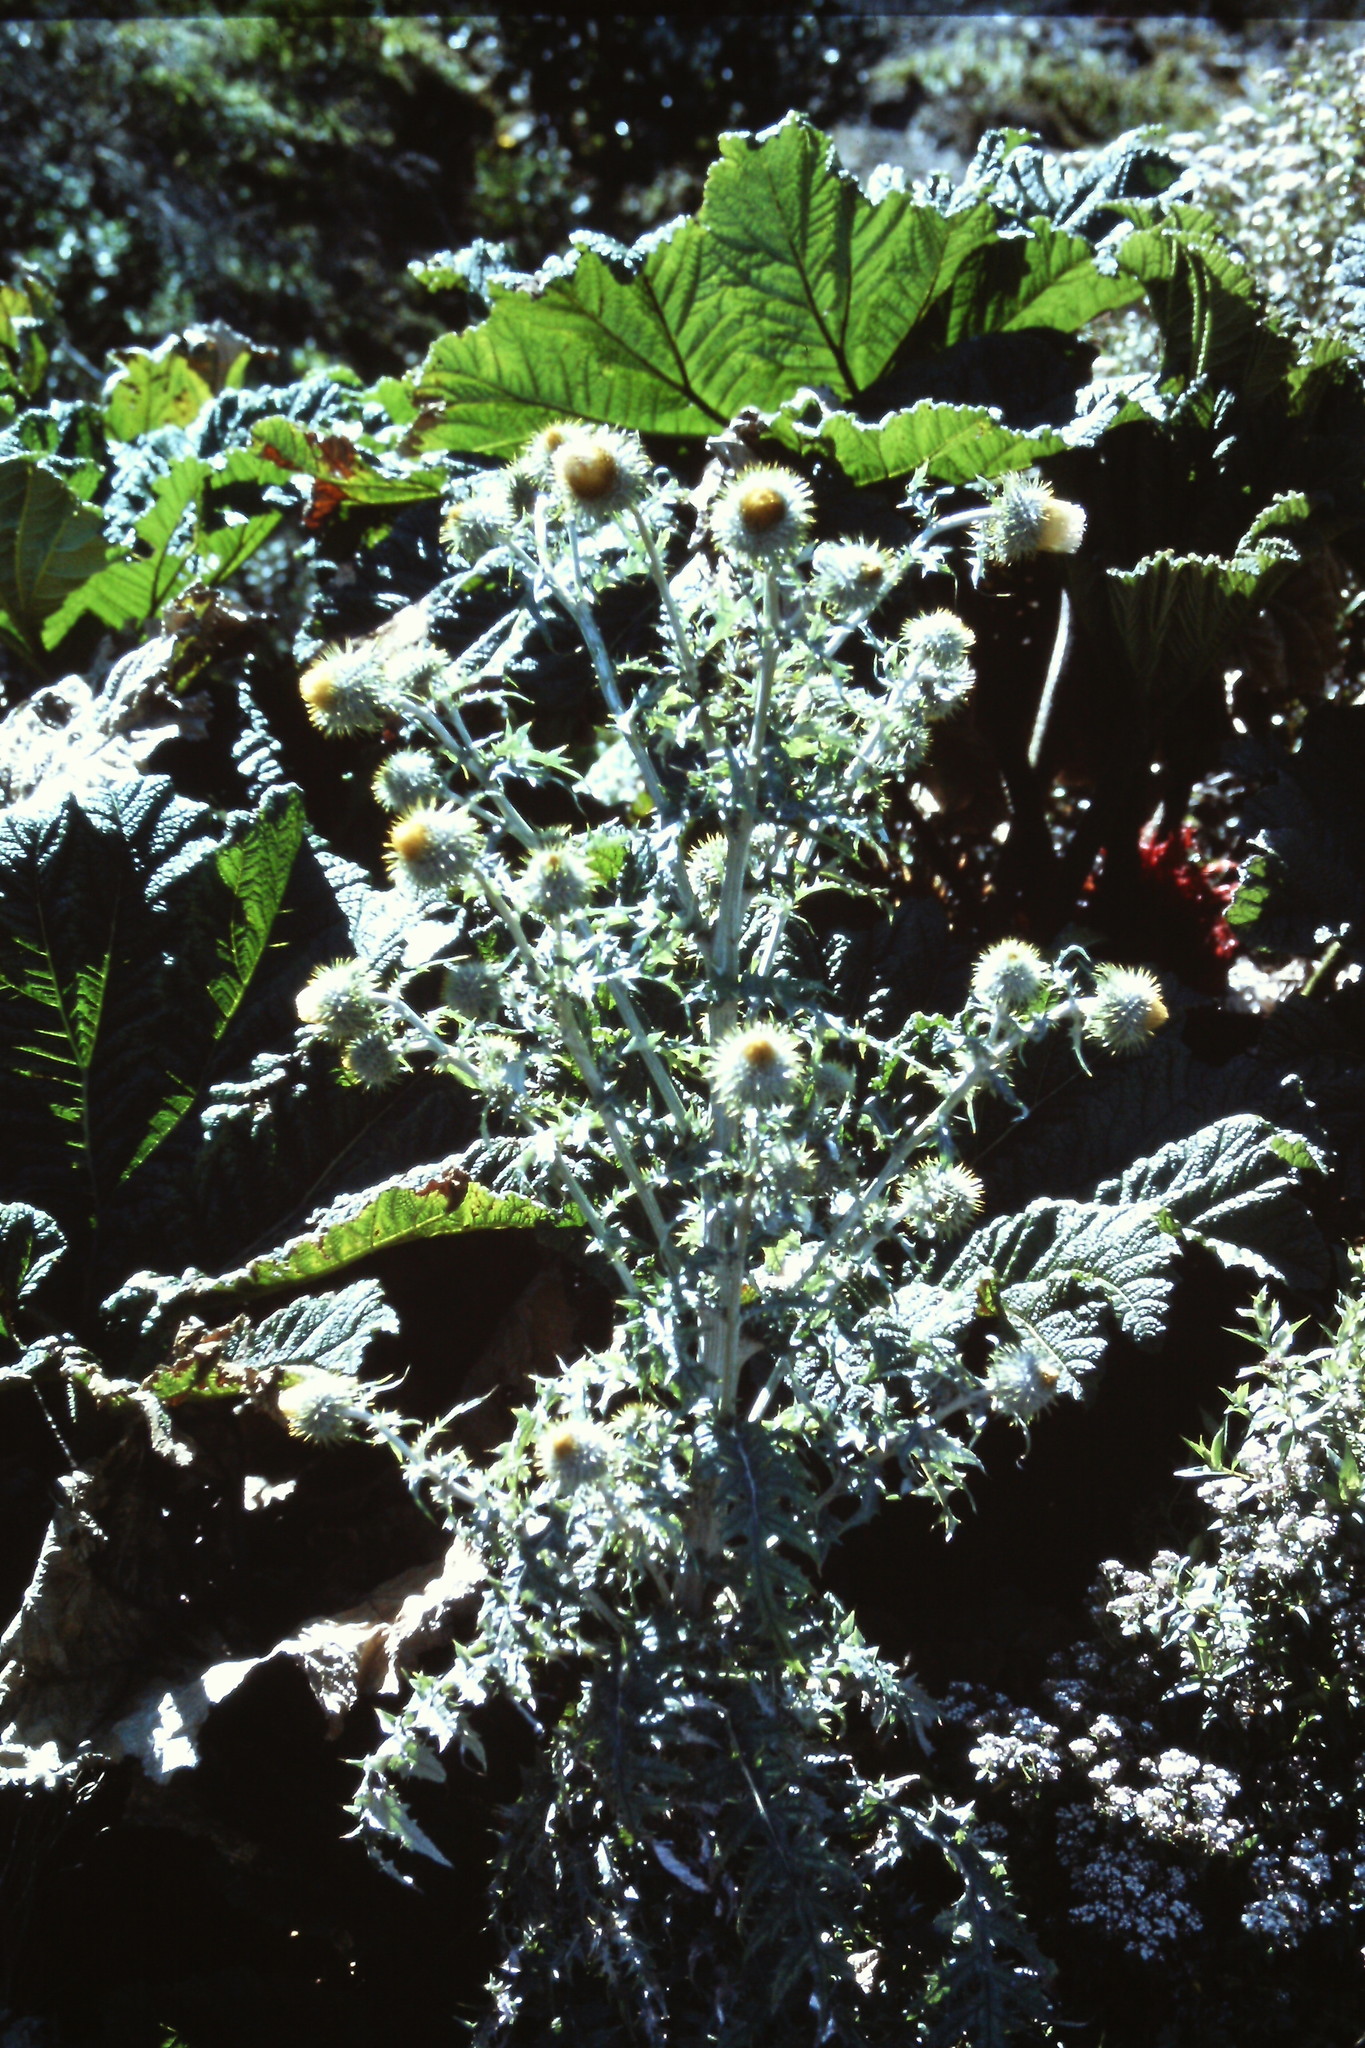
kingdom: Plantae
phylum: Tracheophyta
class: Magnoliopsida
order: Asterales
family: Asteraceae
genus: Cirsium
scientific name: Cirsium subcoriaceum
